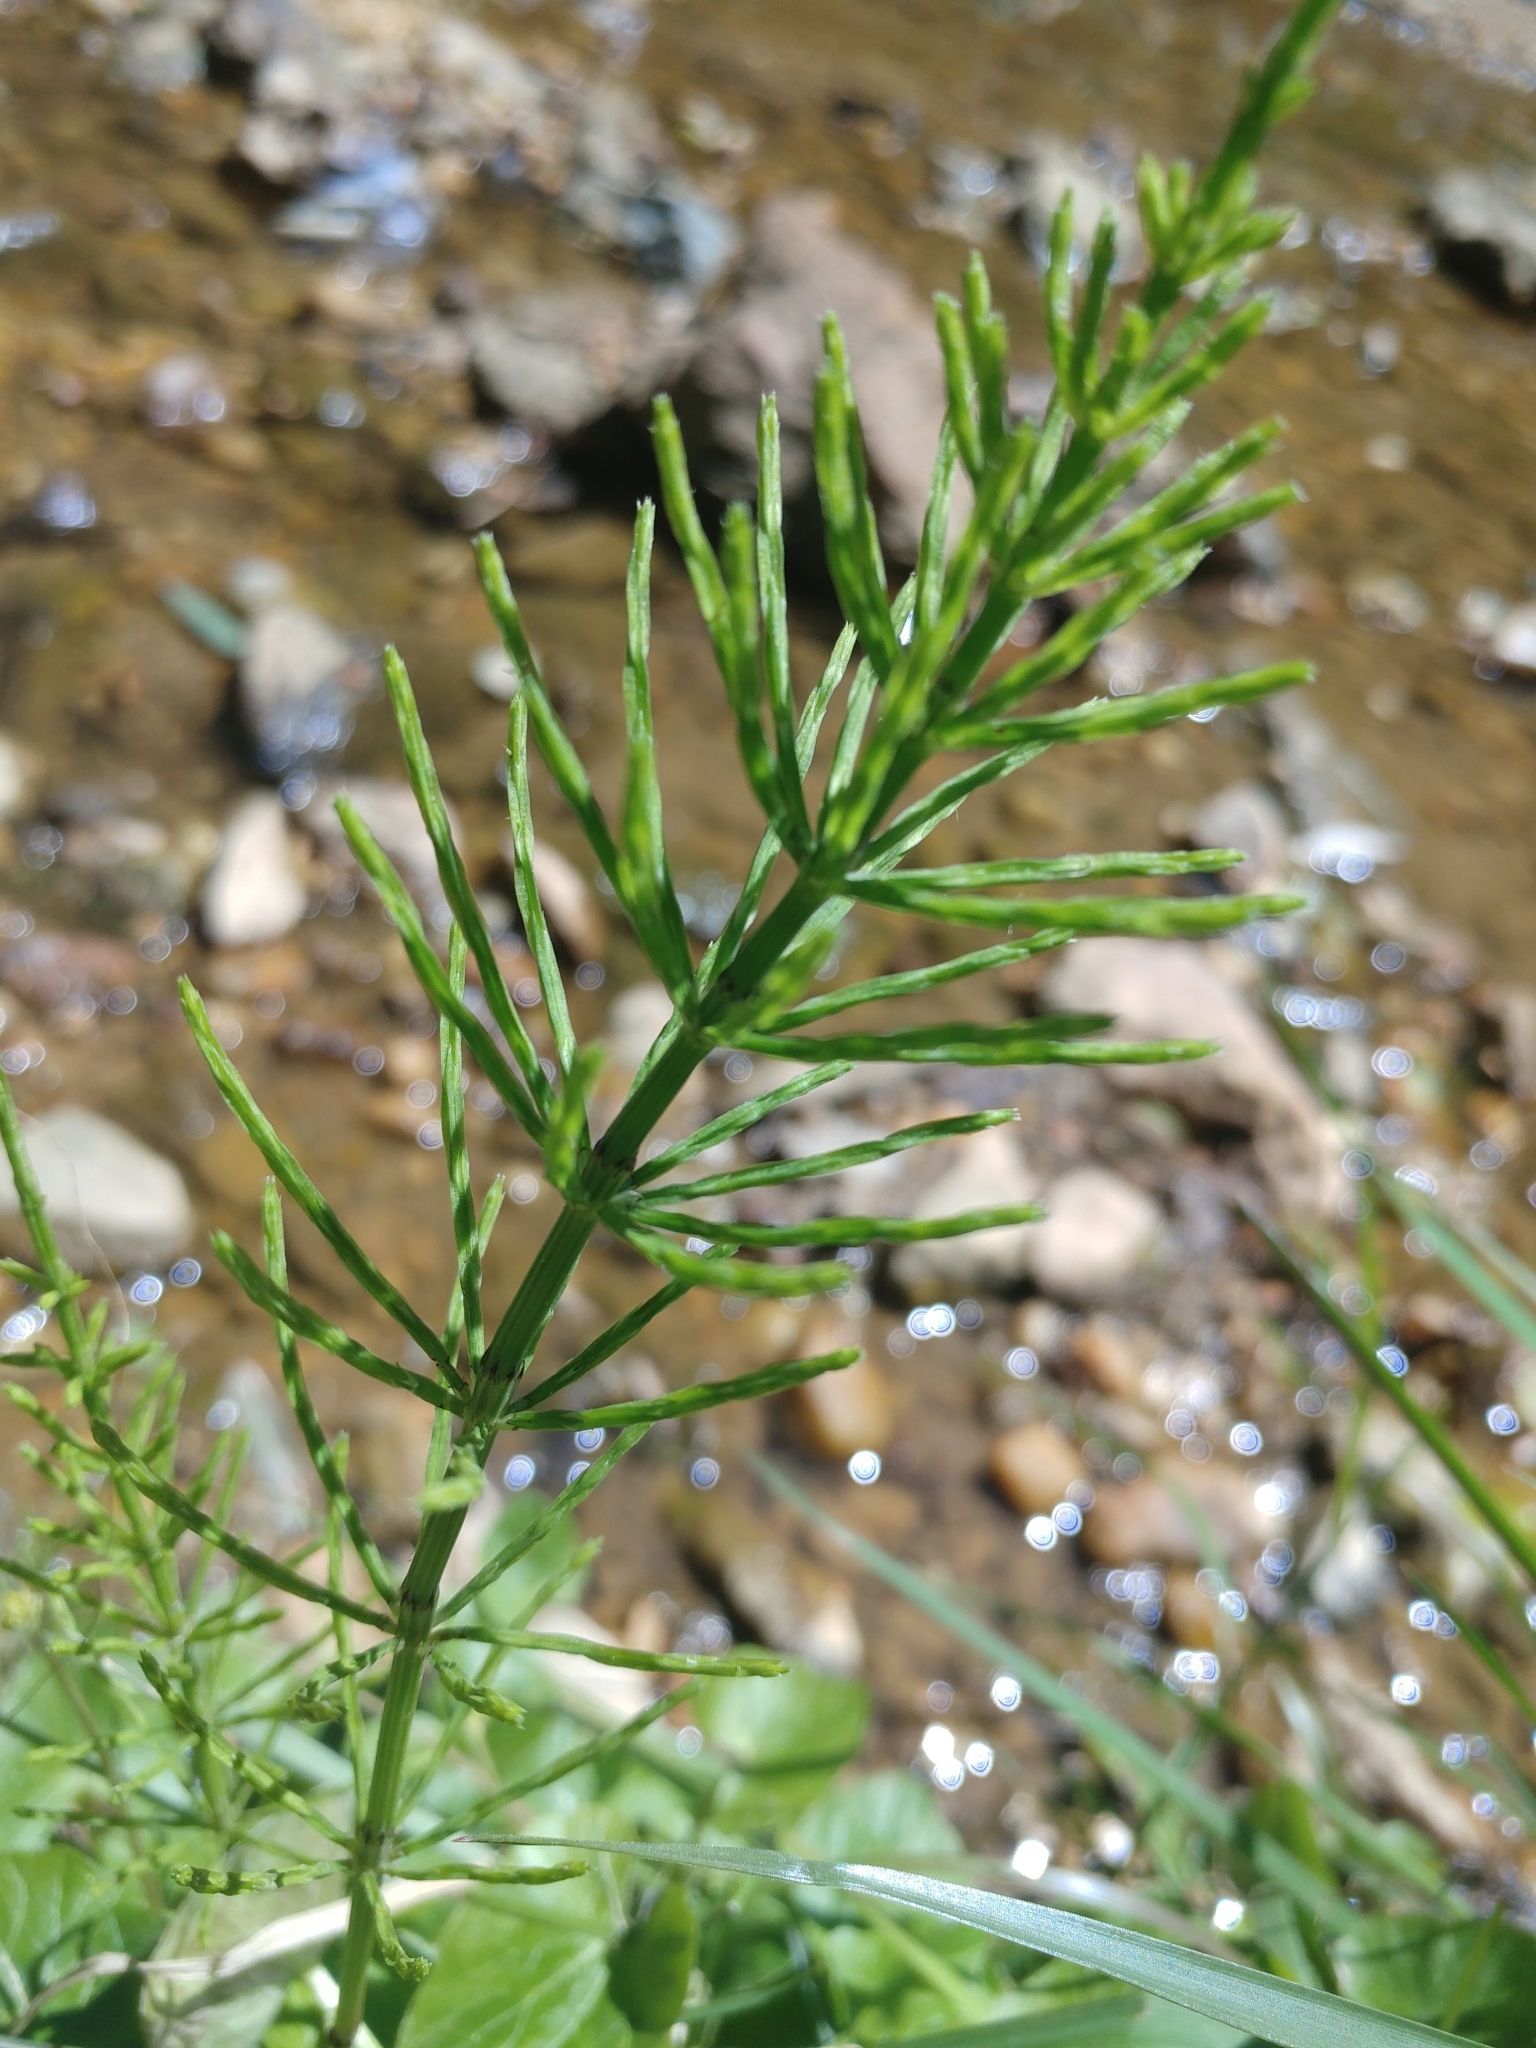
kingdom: Plantae
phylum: Tracheophyta
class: Polypodiopsida
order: Equisetales
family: Equisetaceae
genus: Equisetum
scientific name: Equisetum arvense
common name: Field horsetail
